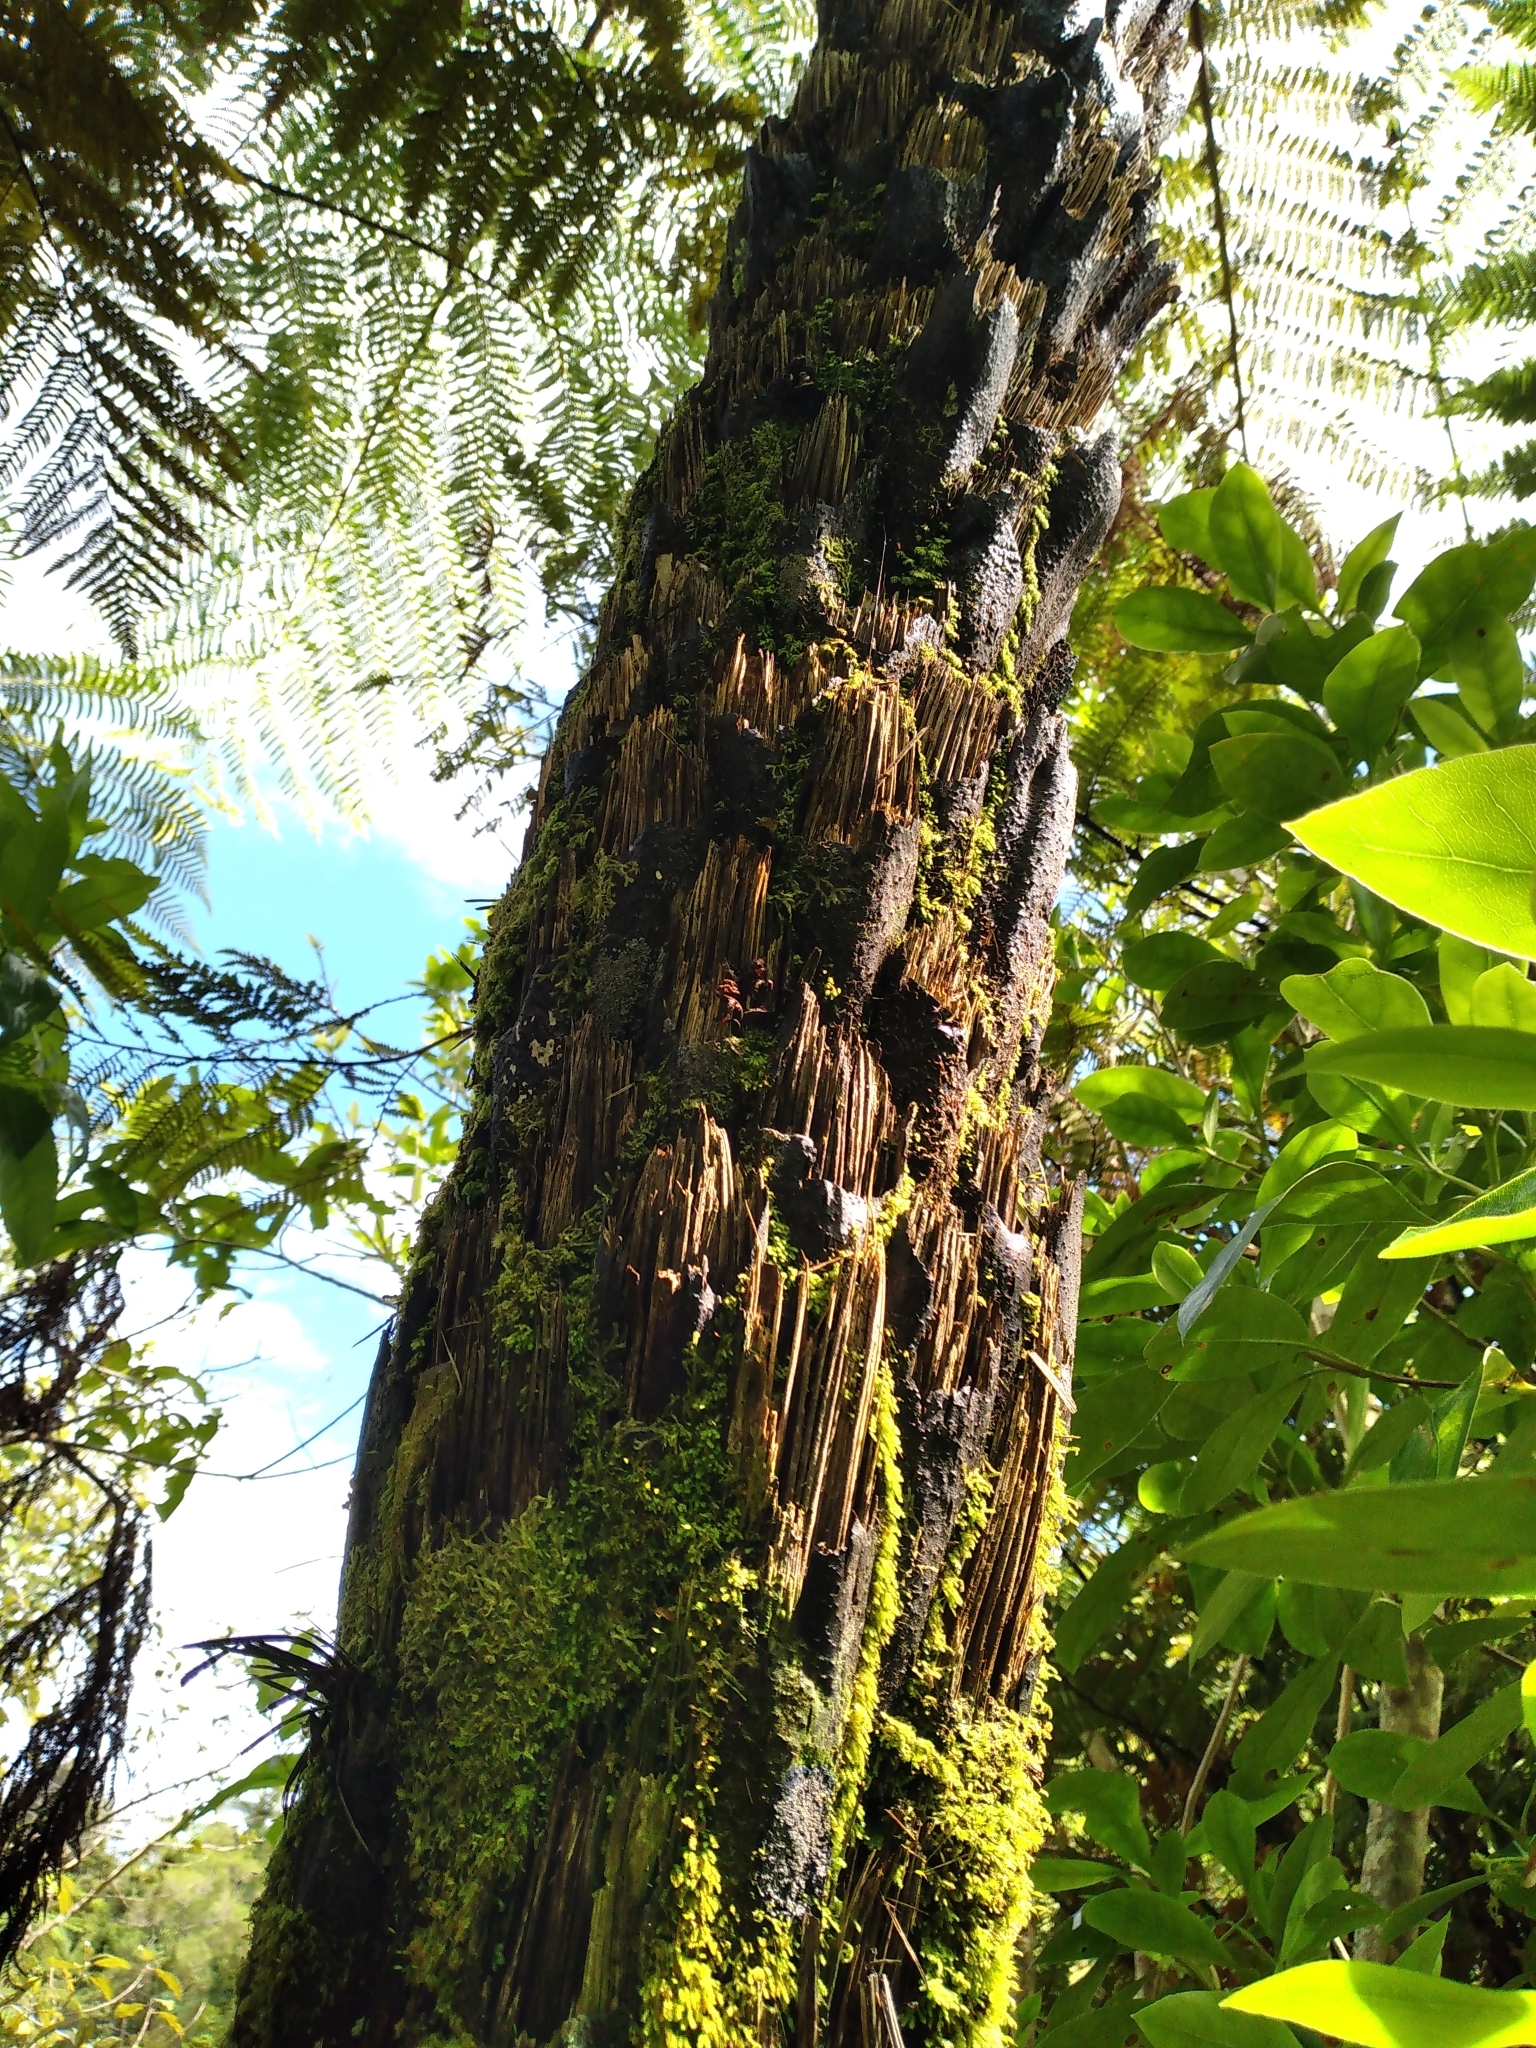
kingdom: Plantae
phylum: Tracheophyta
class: Polypodiopsida
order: Cyatheales
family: Cyatheaceae
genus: Cyathea
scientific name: Cyathea cunninghamii
